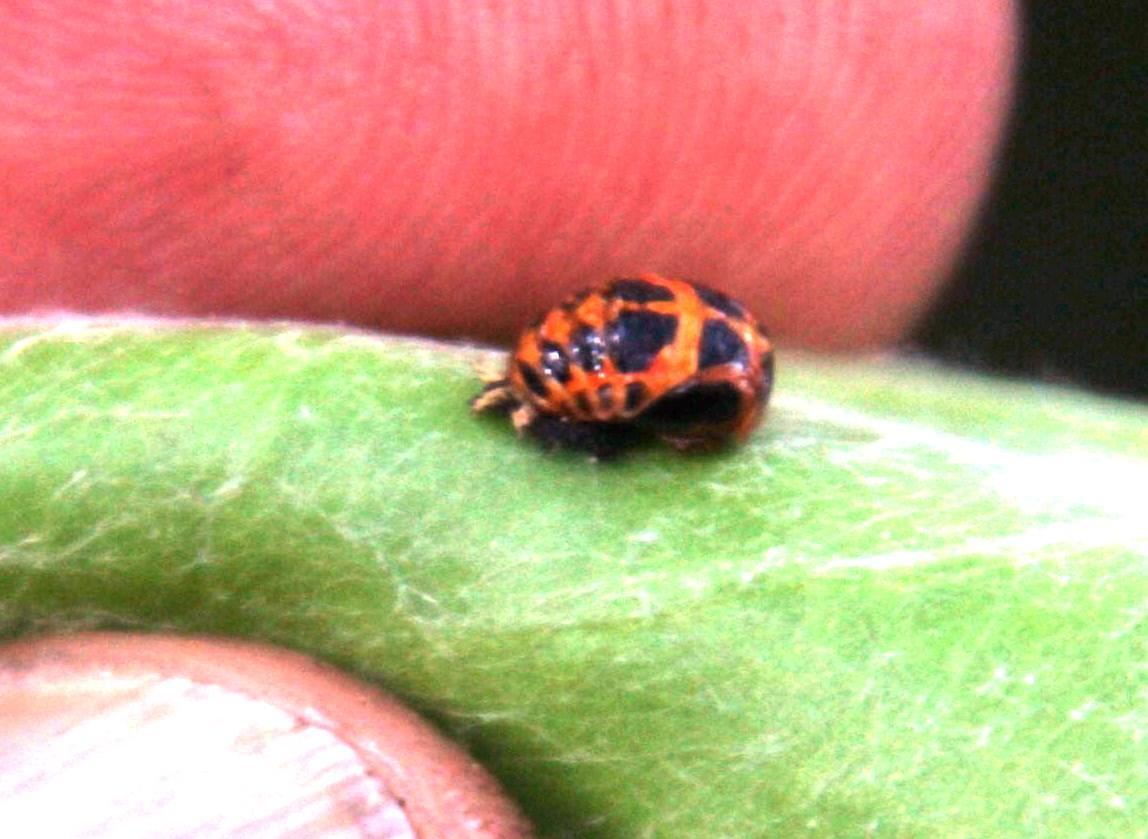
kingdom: Animalia
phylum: Arthropoda
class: Insecta
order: Coleoptera
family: Coccinellidae
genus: Harmonia
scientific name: Harmonia axyridis
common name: Harlequin ladybird
